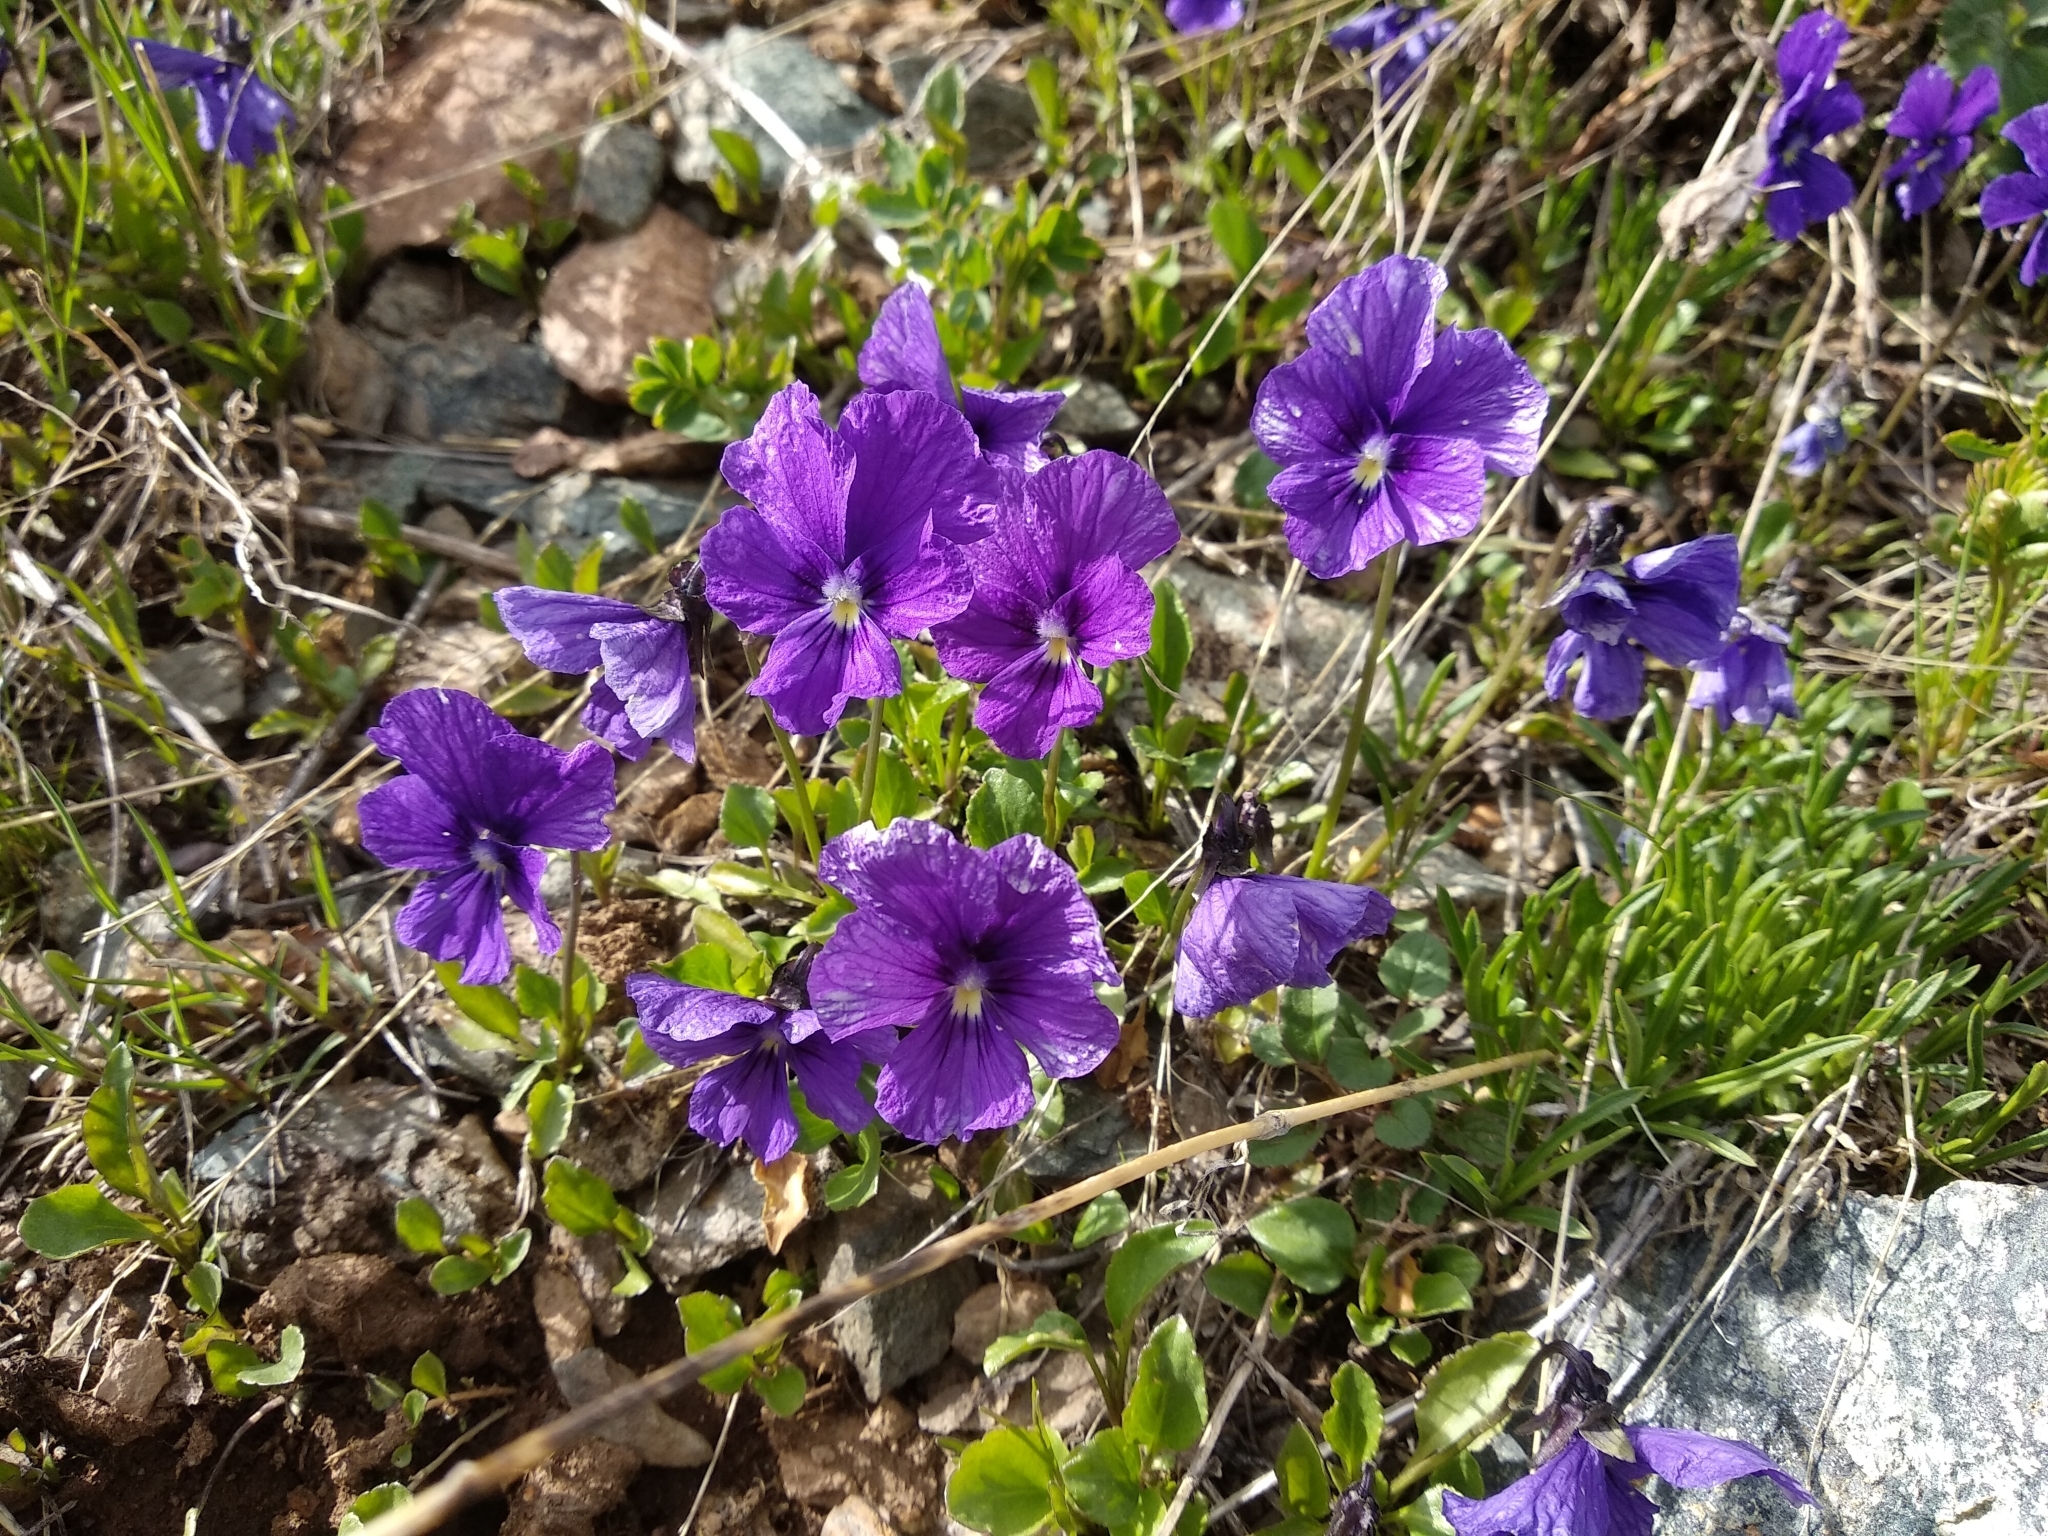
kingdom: Plantae
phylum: Tracheophyta
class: Magnoliopsida
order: Malpighiales
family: Violaceae
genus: Viola
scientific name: Viola altaica
